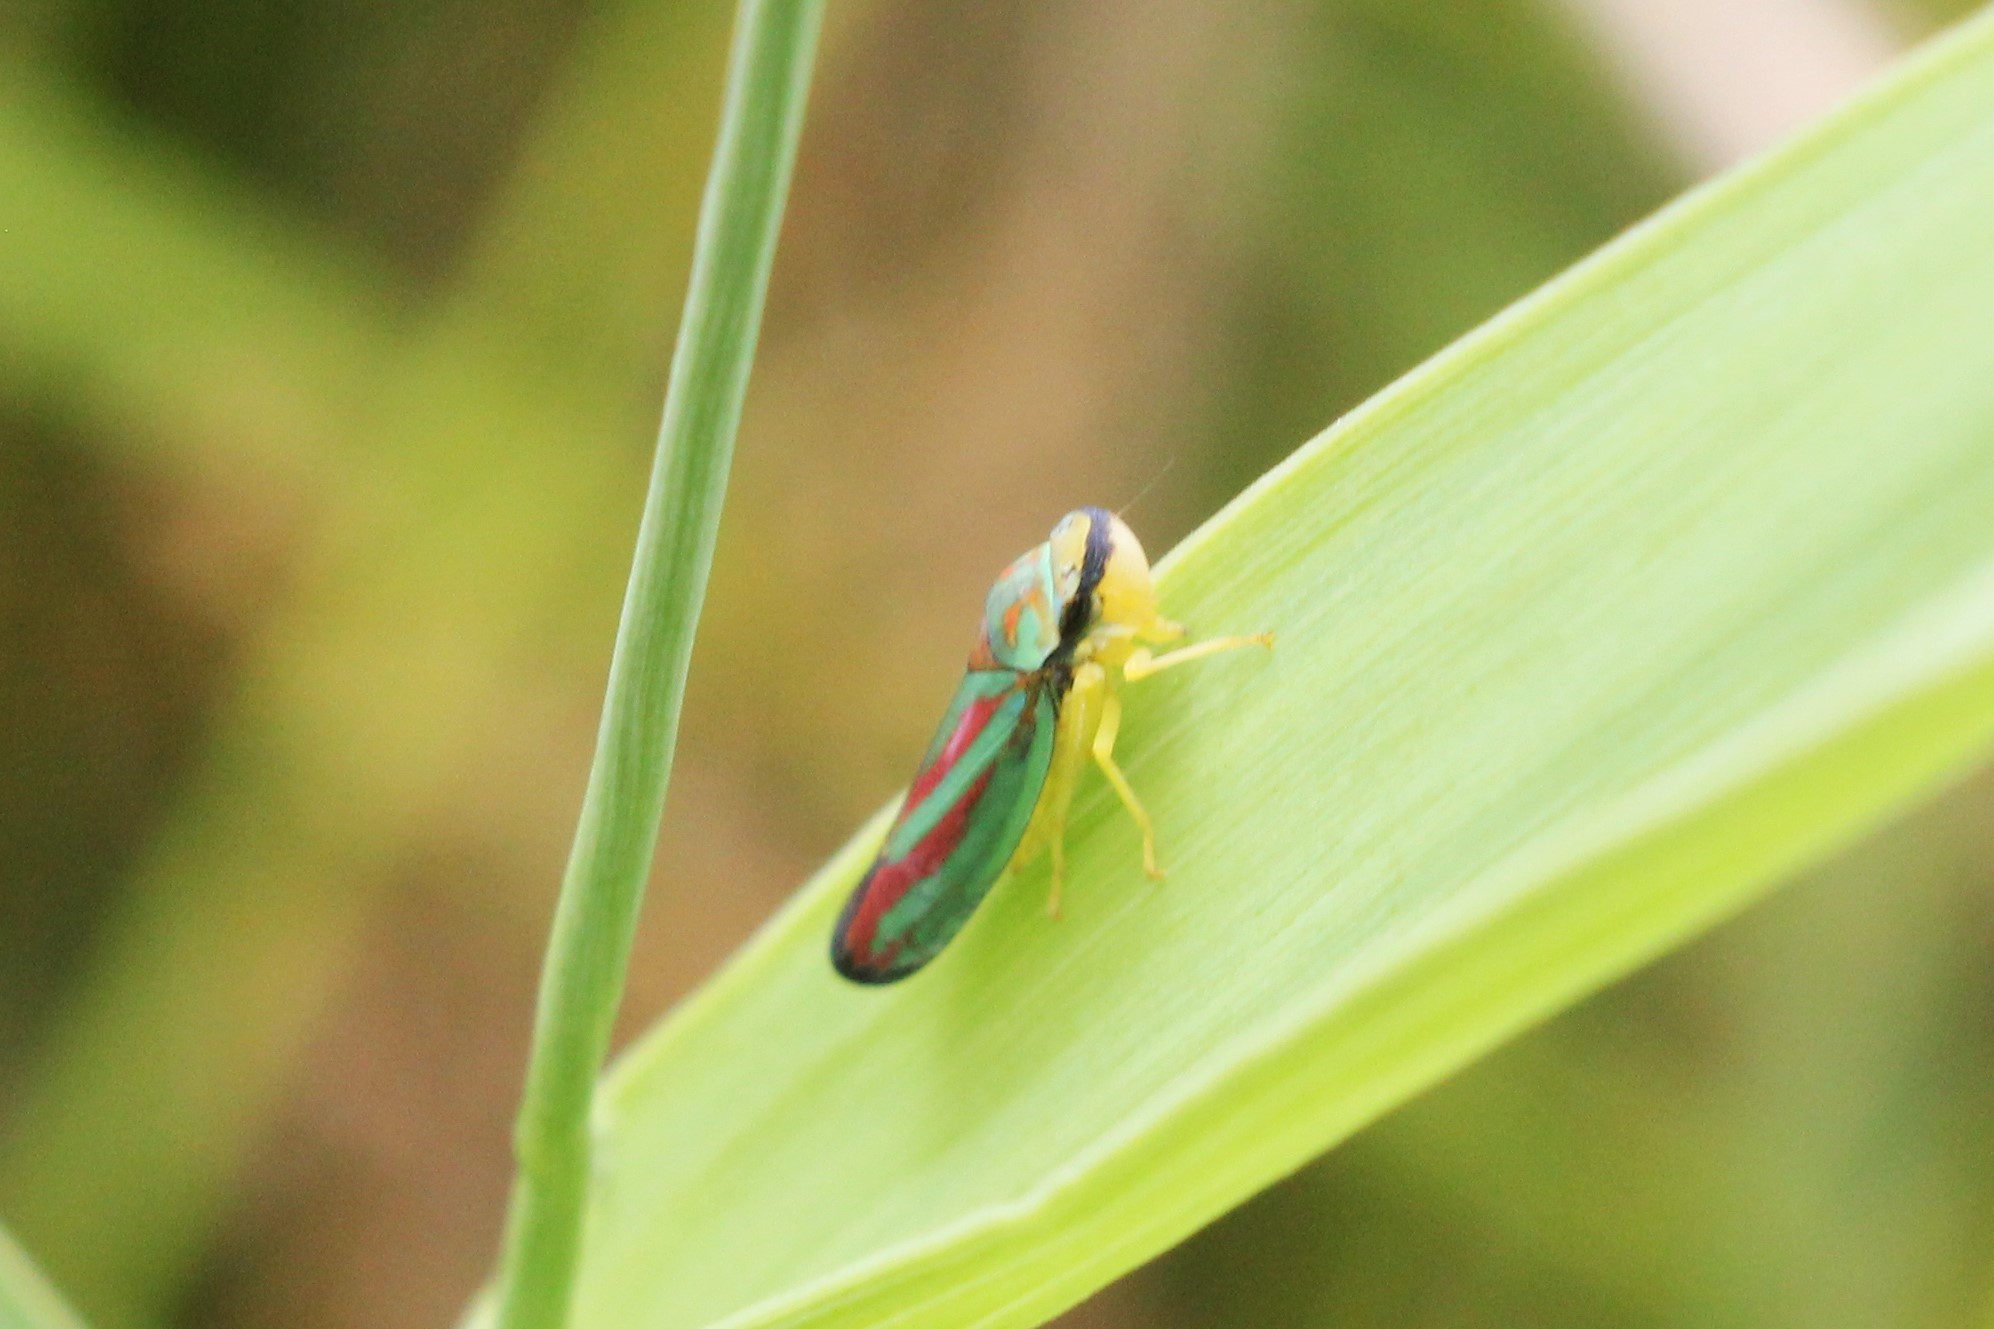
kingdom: Animalia
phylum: Arthropoda
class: Insecta
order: Hemiptera
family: Cicadellidae
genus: Graphocephala
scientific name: Graphocephala coccinea
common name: Candy-striped leafhopper
